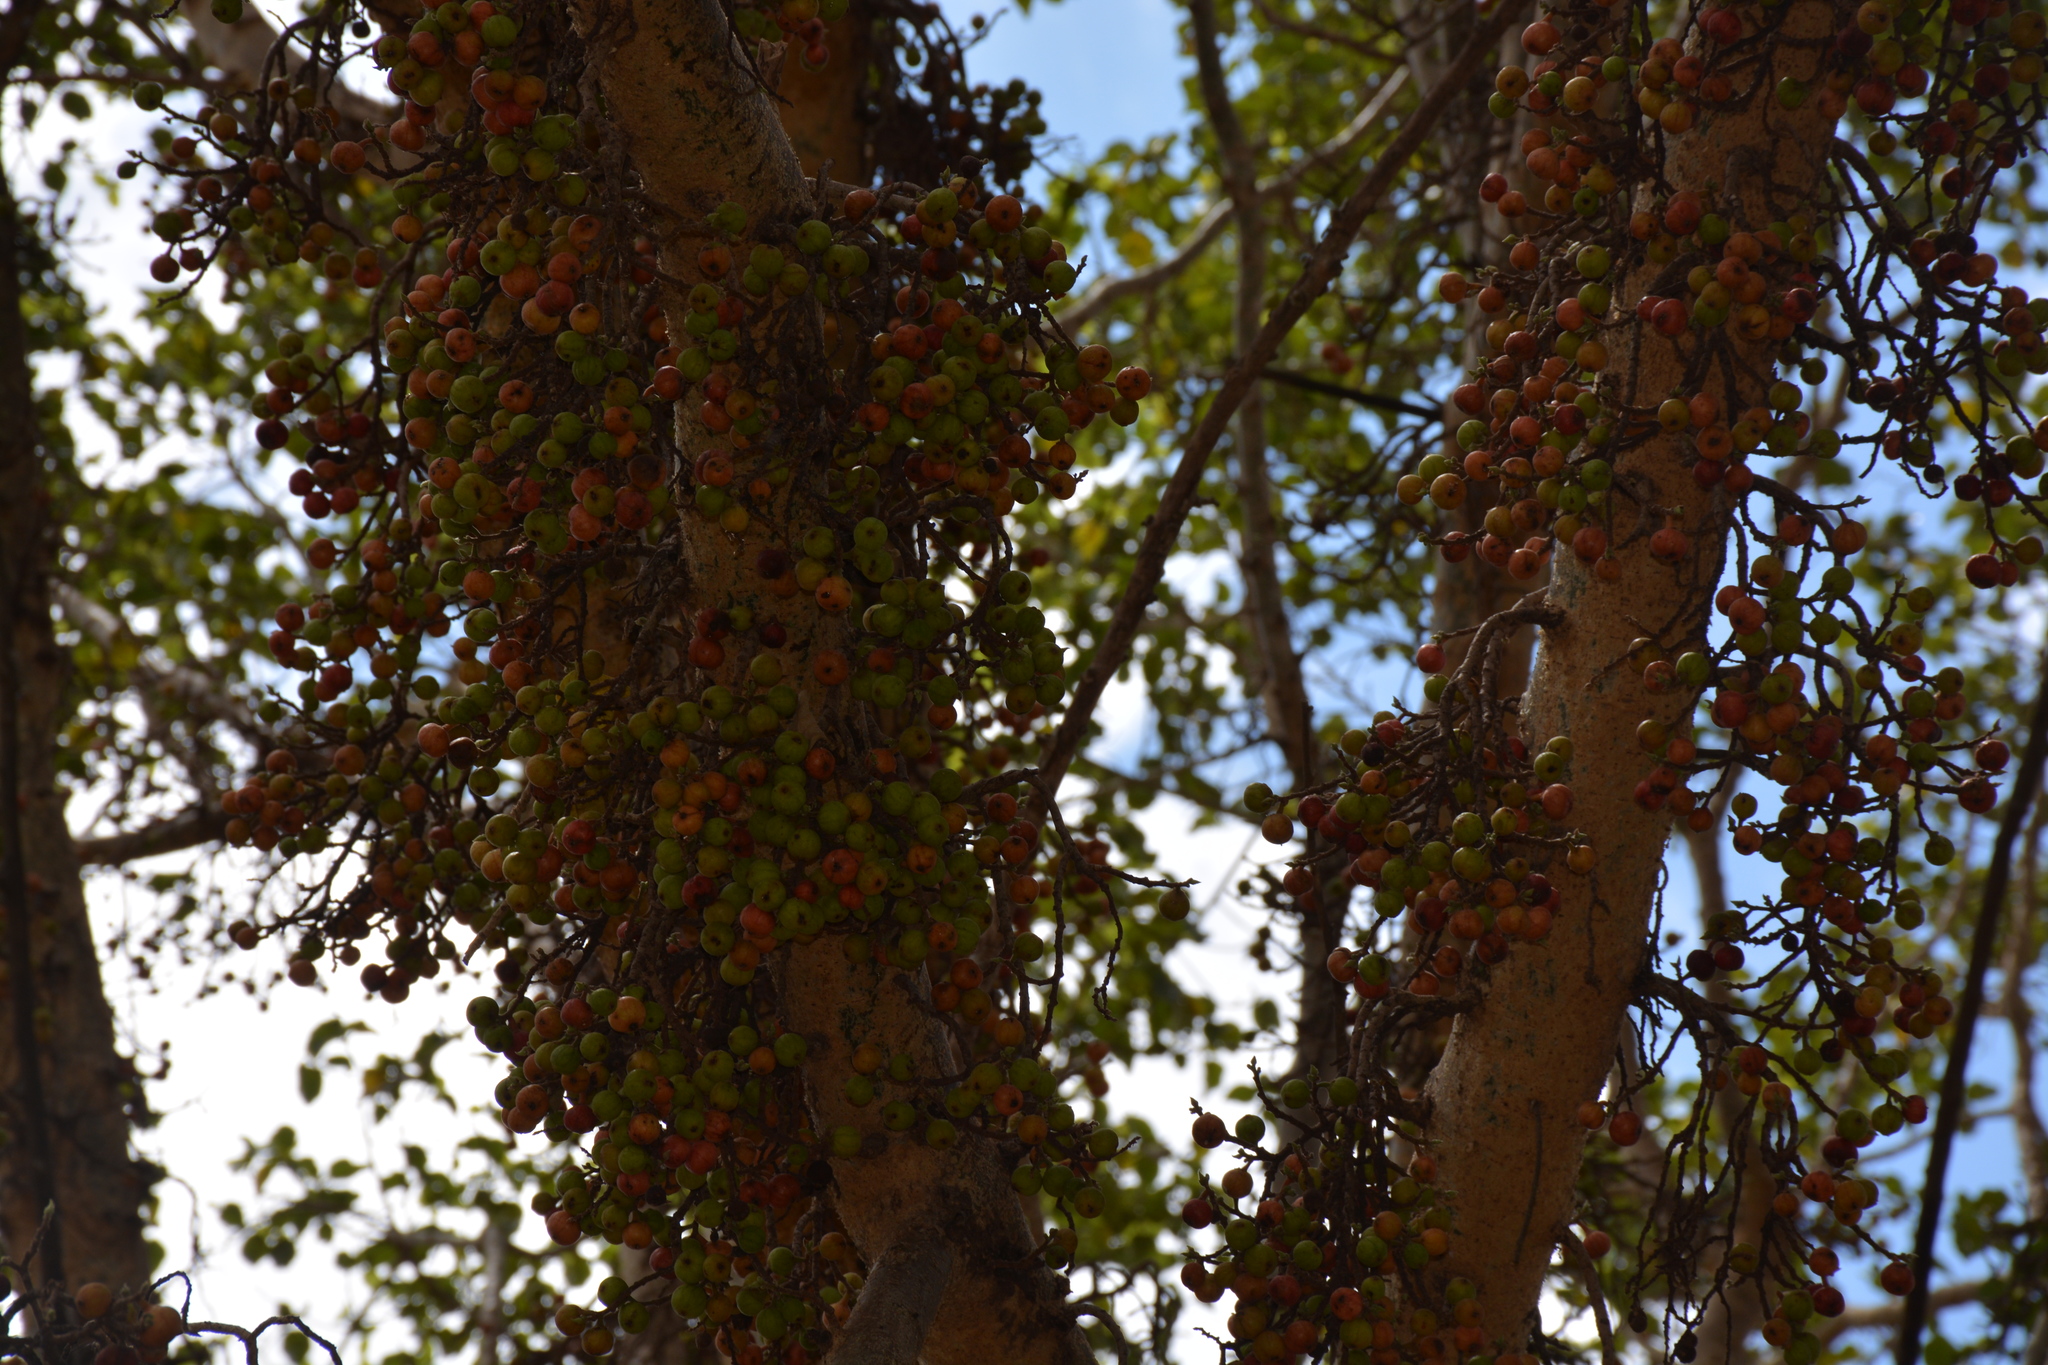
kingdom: Plantae
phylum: Tracheophyta
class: Magnoliopsida
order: Rosales
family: Moraceae
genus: Ficus
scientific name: Ficus sycomorus
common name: Sycomore
